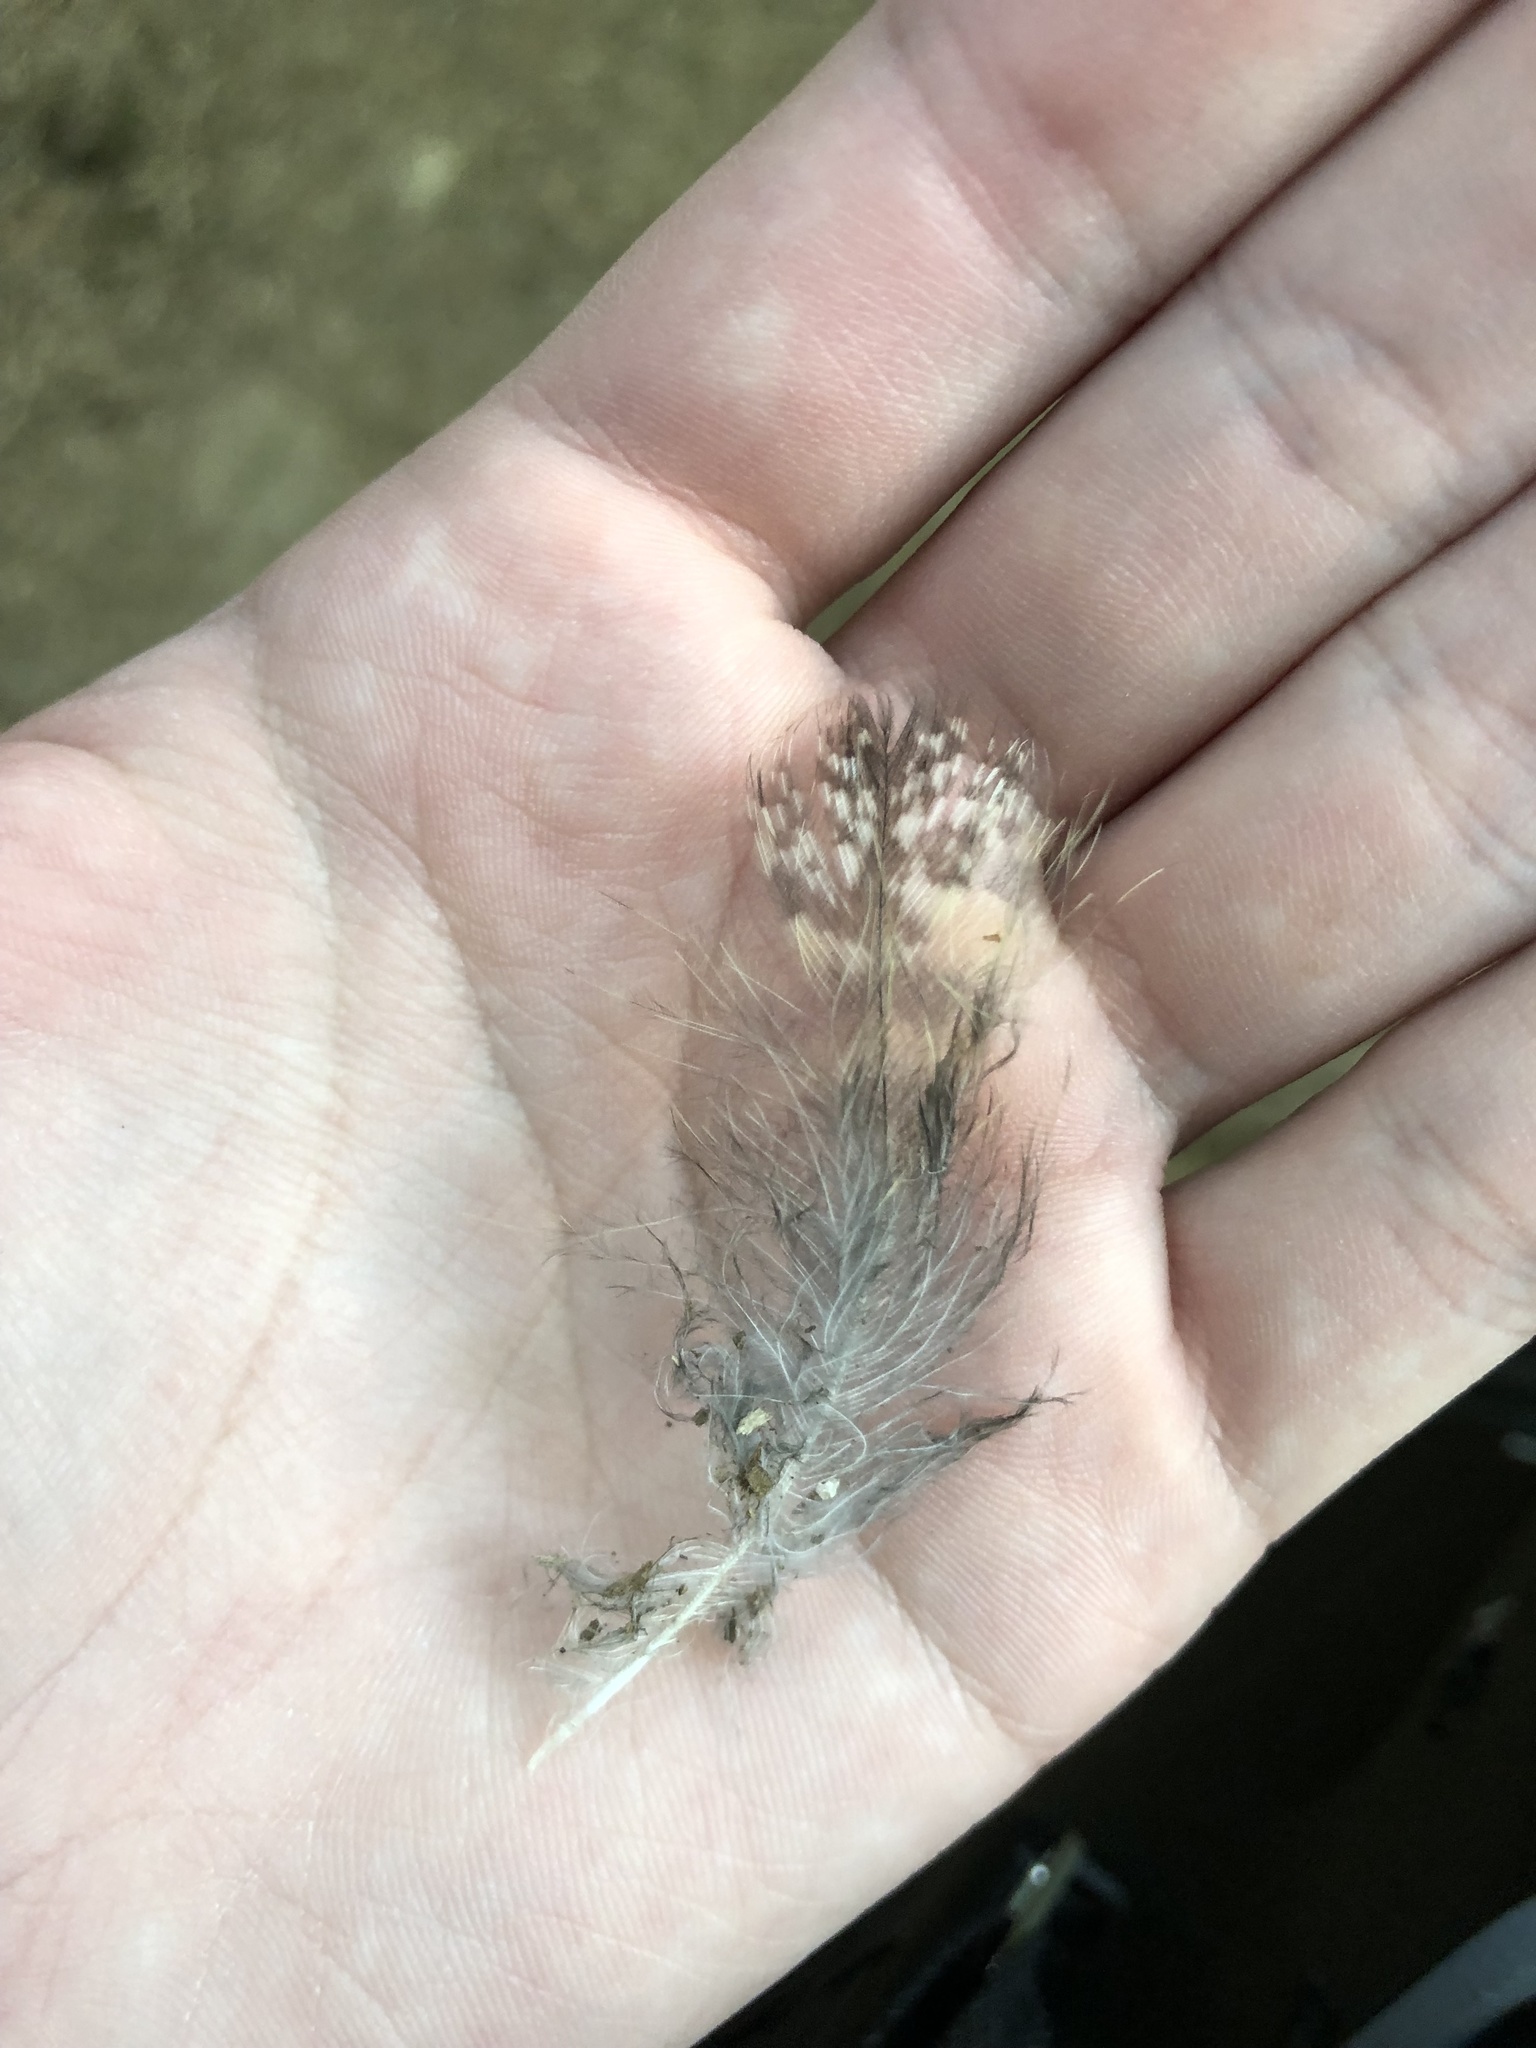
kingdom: Animalia
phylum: Chordata
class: Aves
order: Strigiformes
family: Strigidae
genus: Bubo
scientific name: Bubo virginianus
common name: Great horned owl
